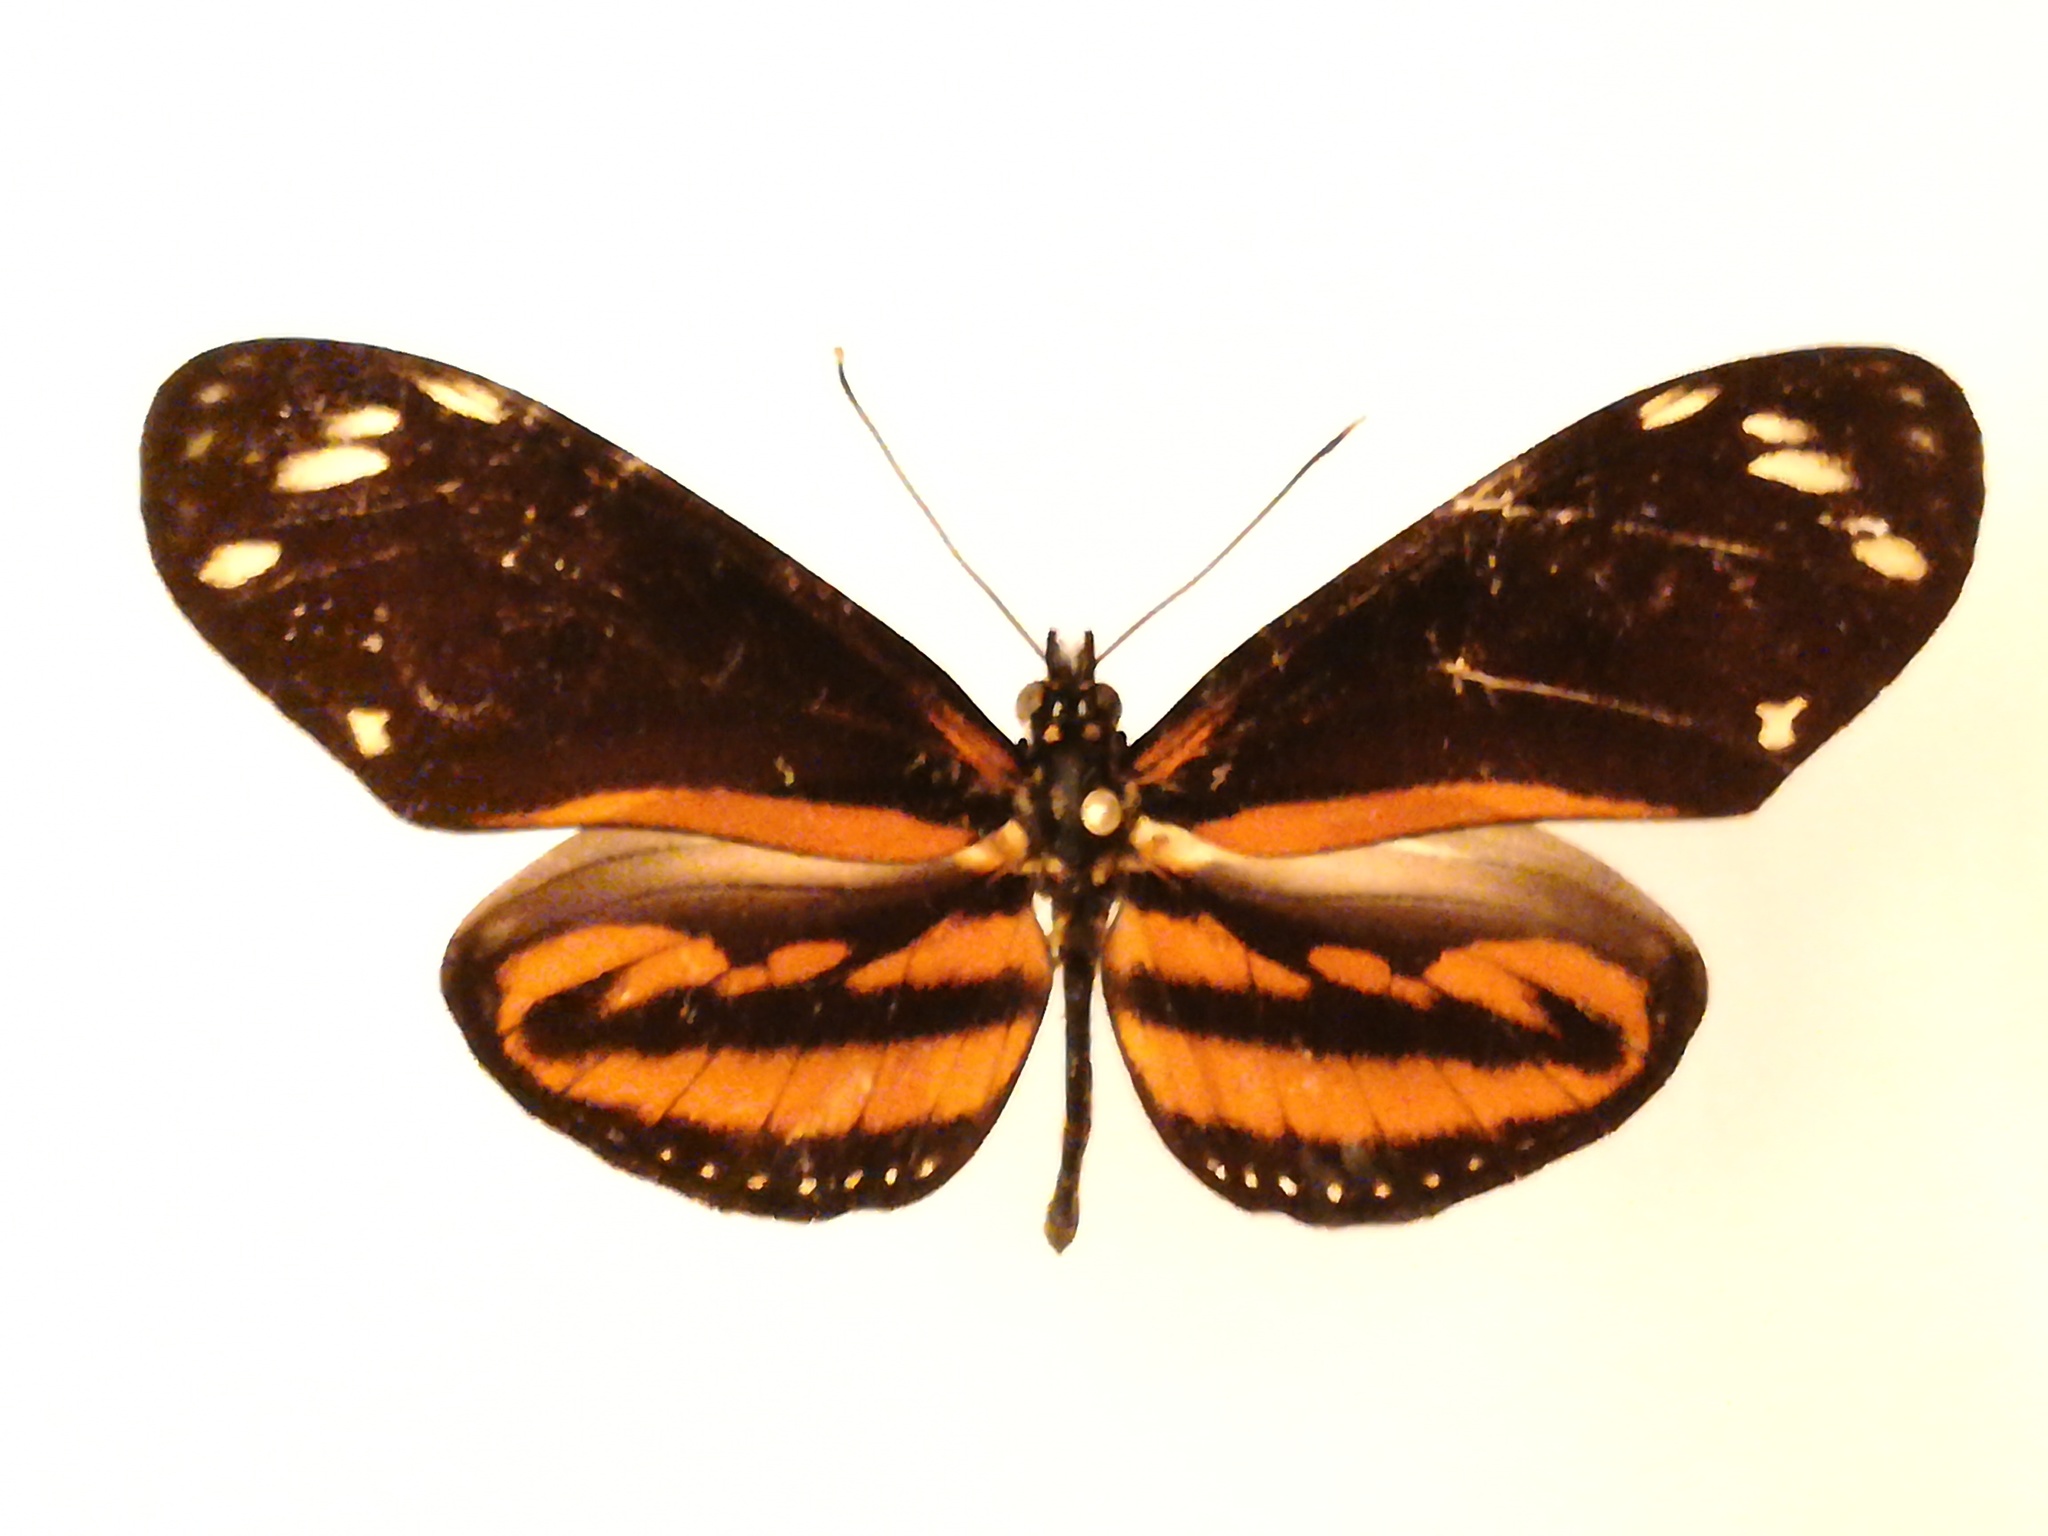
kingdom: Animalia
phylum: Arthropoda
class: Insecta
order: Lepidoptera
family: Nymphalidae
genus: Lycorea
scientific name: Lycorea eva
